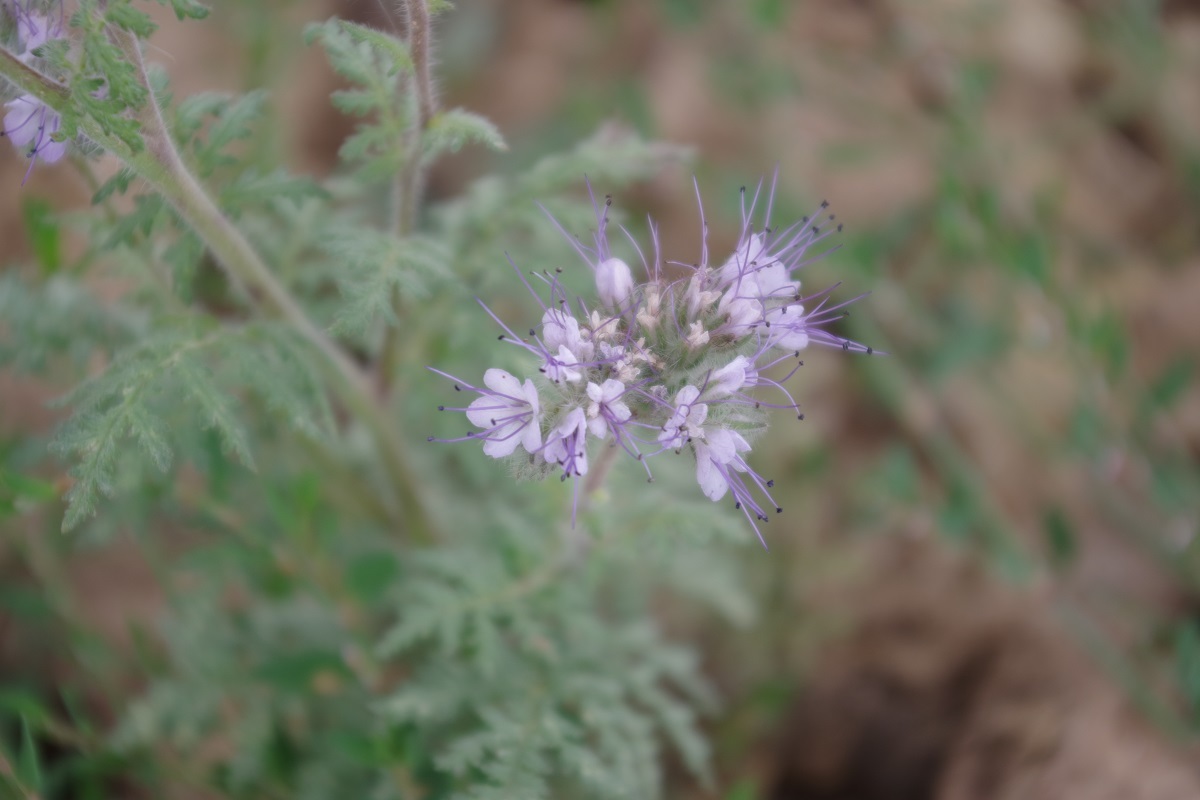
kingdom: Plantae
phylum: Tracheophyta
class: Magnoliopsida
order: Boraginales
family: Hydrophyllaceae
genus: Phacelia
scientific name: Phacelia tanacetifolia
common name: Phacelia
